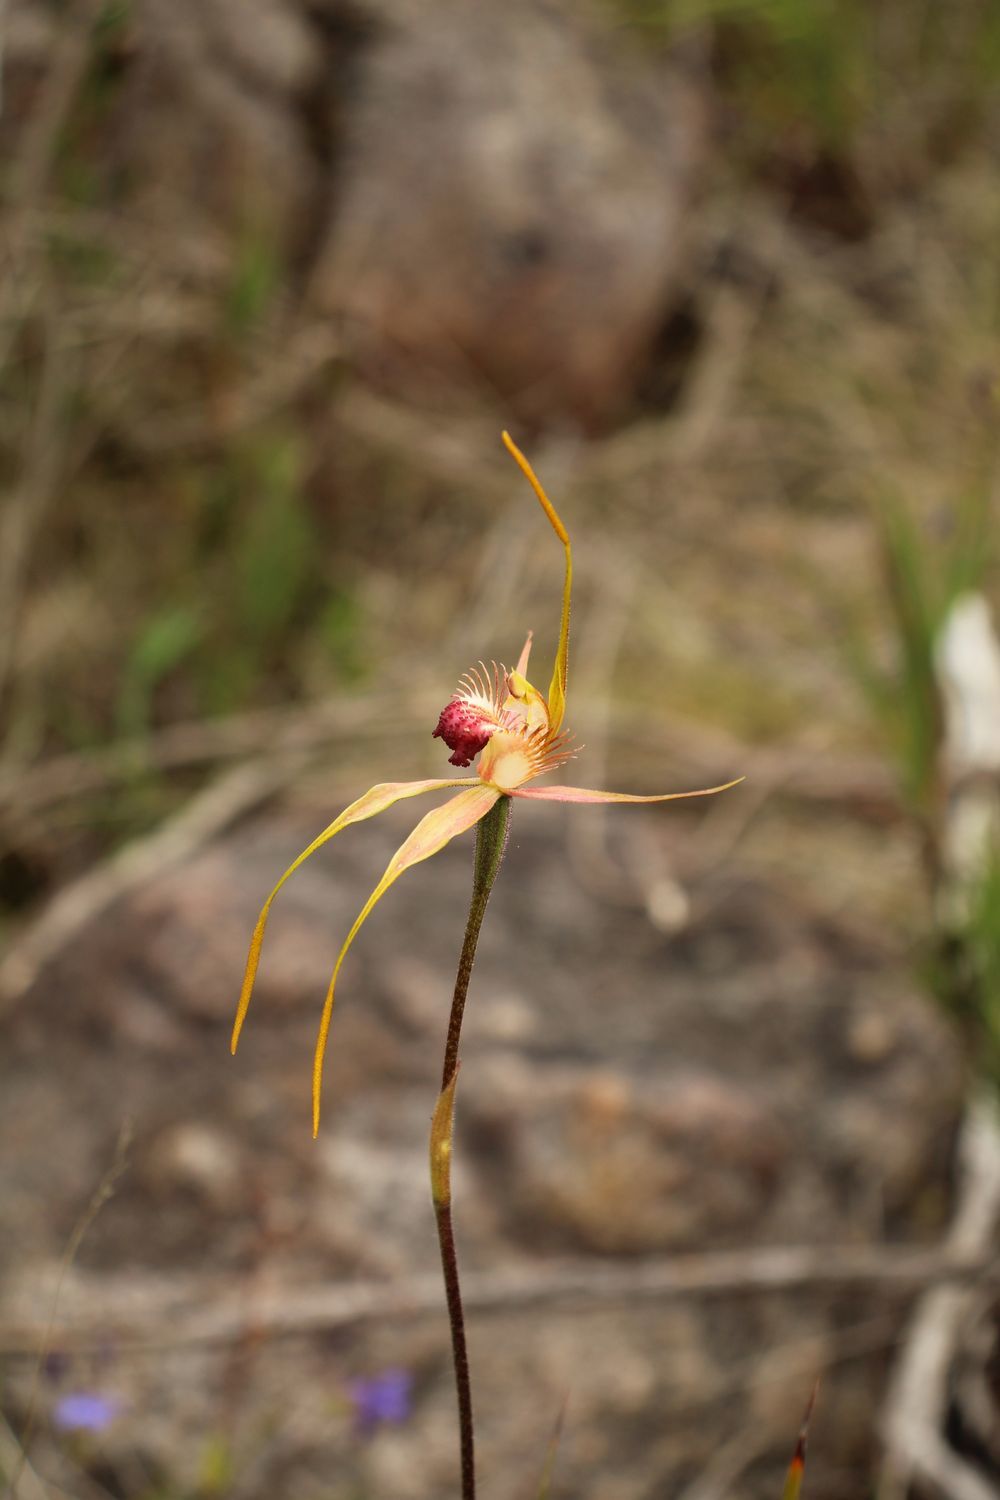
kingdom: Plantae
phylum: Tracheophyta
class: Liliopsida
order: Asparagales
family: Orchidaceae
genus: Caladenia
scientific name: Caladenia pectinata
